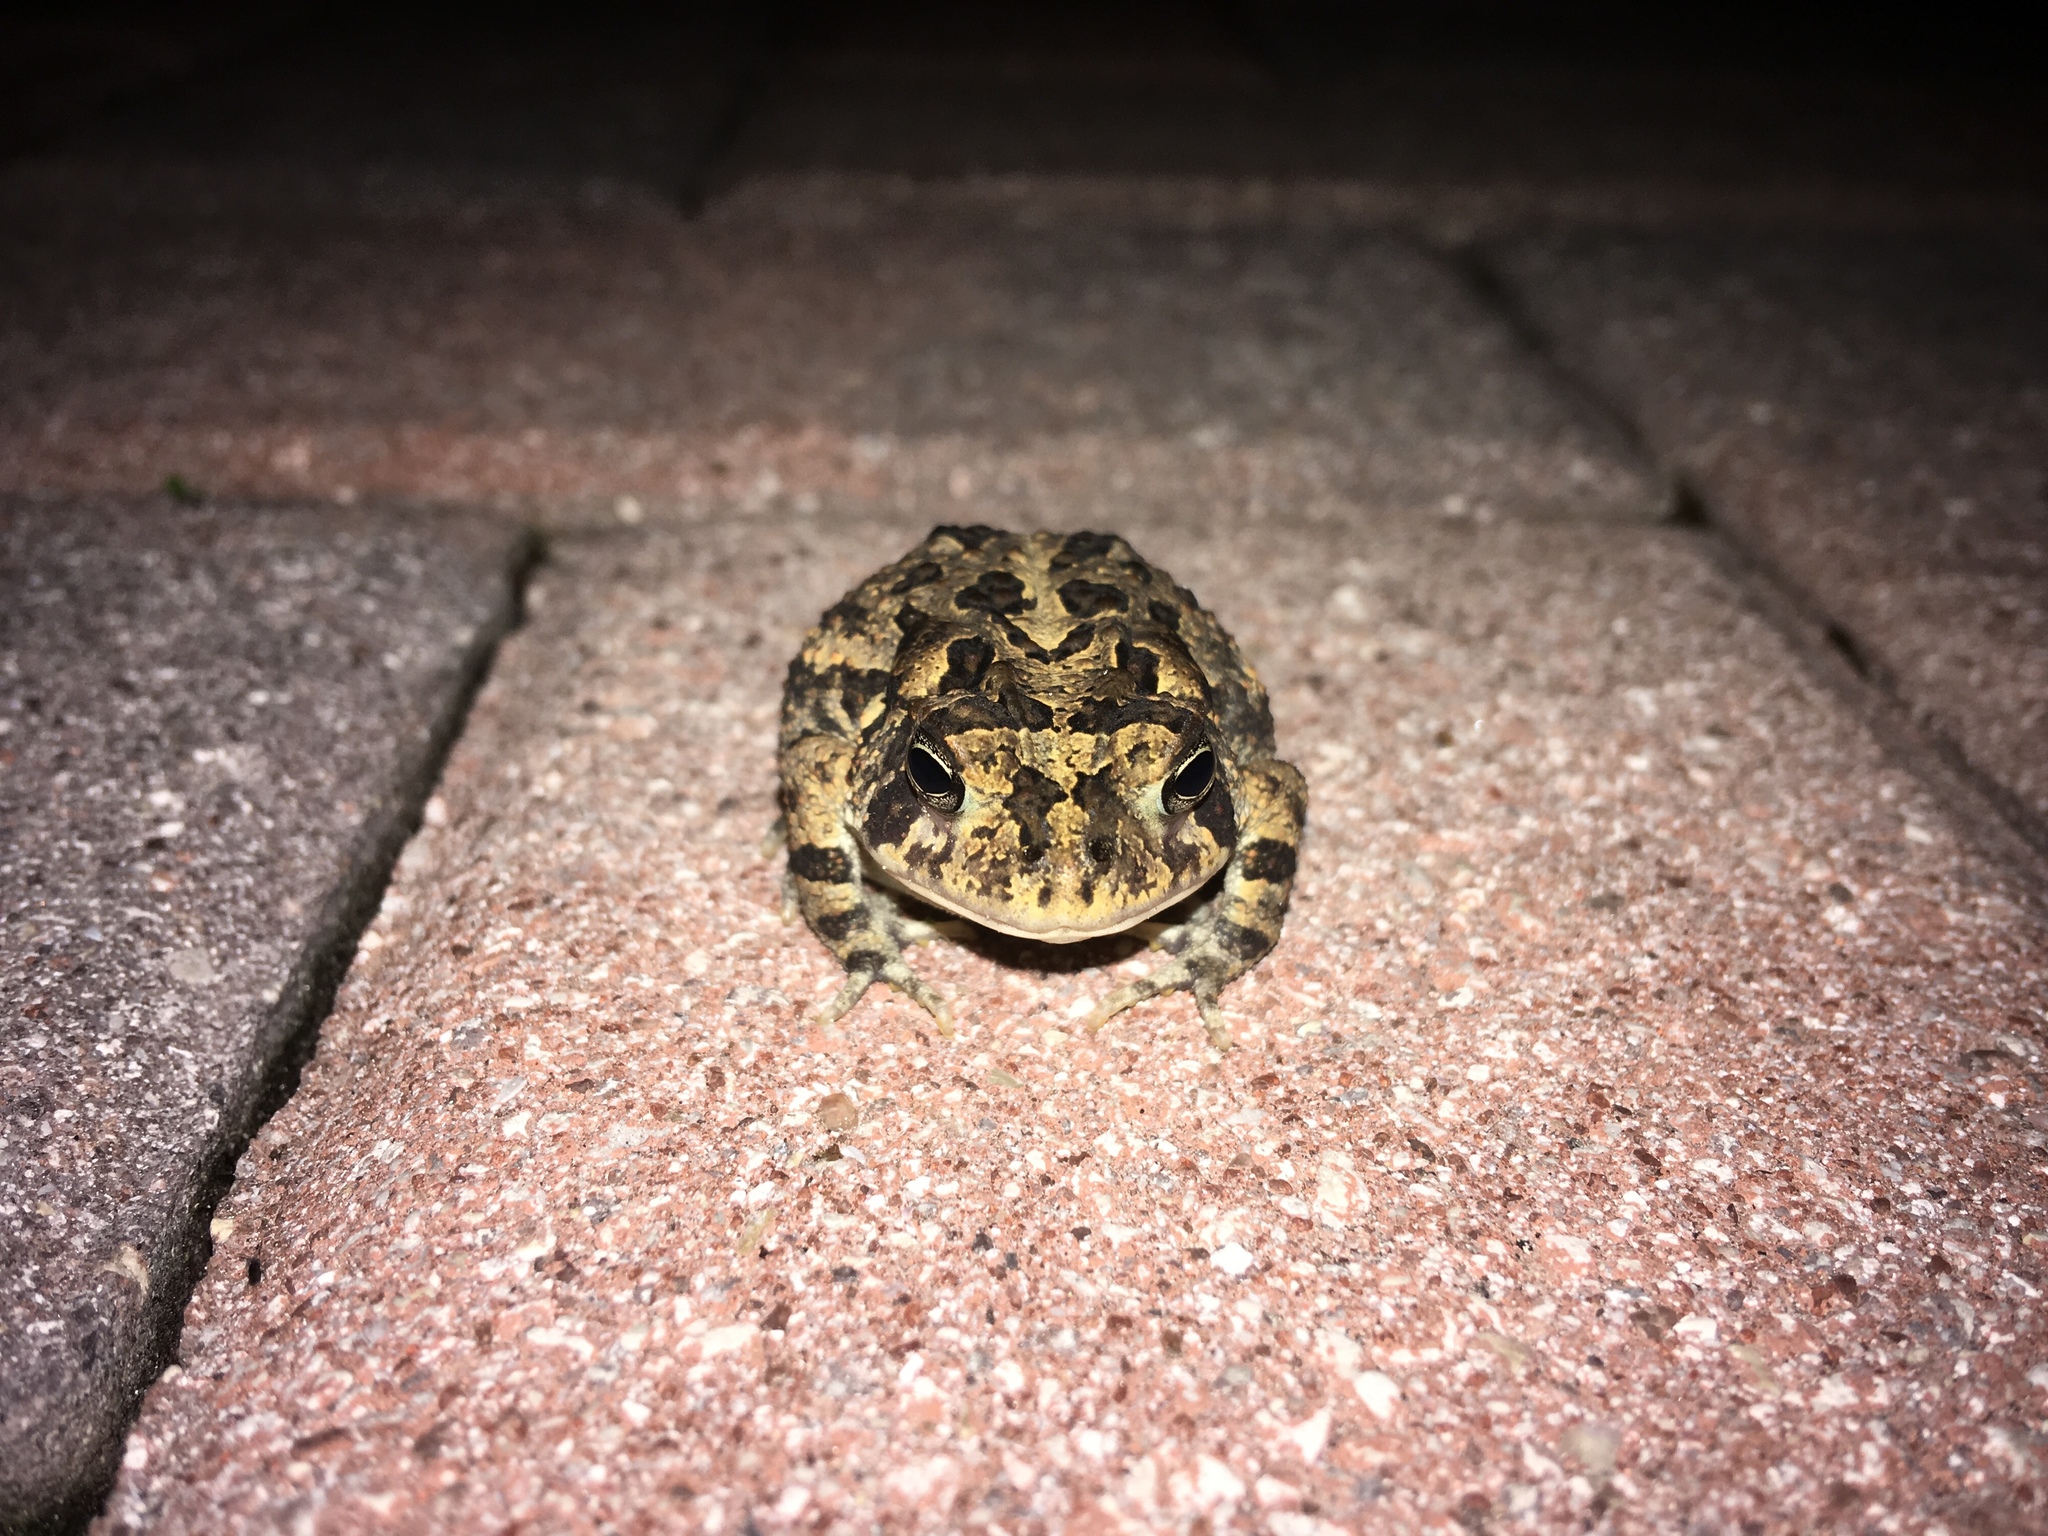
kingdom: Animalia
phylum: Chordata
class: Amphibia
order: Anura
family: Bufonidae
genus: Anaxyrus
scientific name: Anaxyrus terrestris
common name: Southern toad
